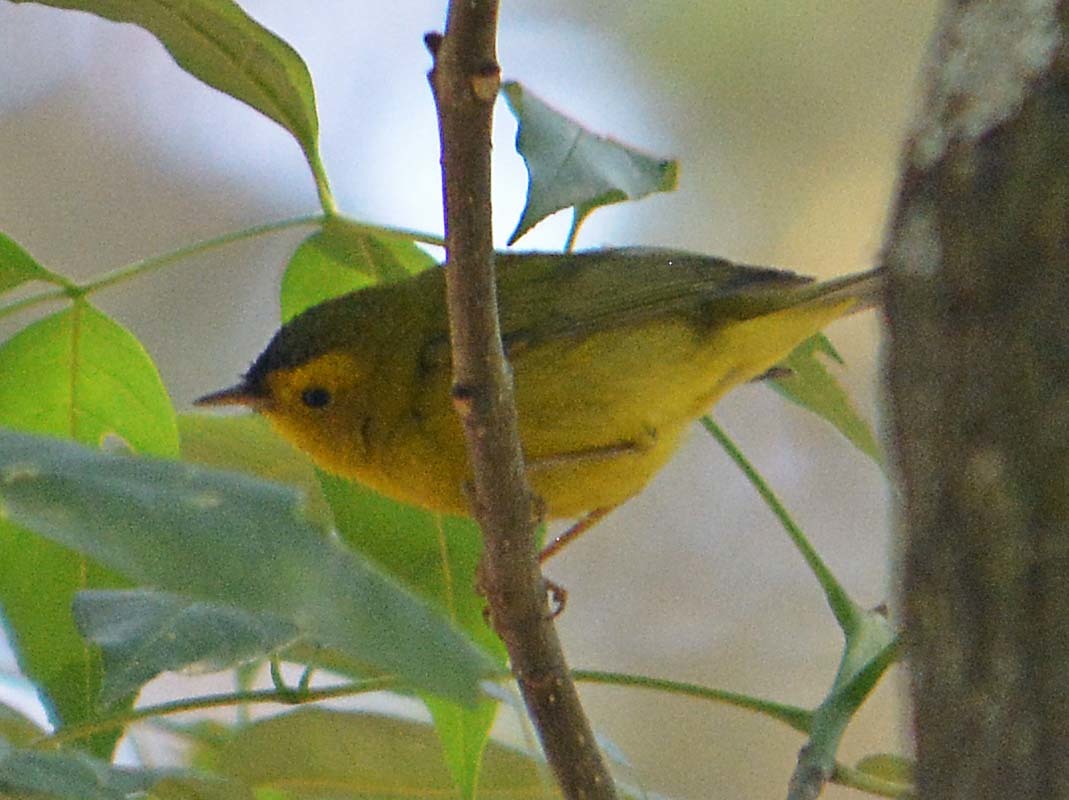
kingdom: Animalia
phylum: Chordata
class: Aves
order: Passeriformes
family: Parulidae
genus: Cardellina
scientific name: Cardellina pusilla
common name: Wilson's warbler
